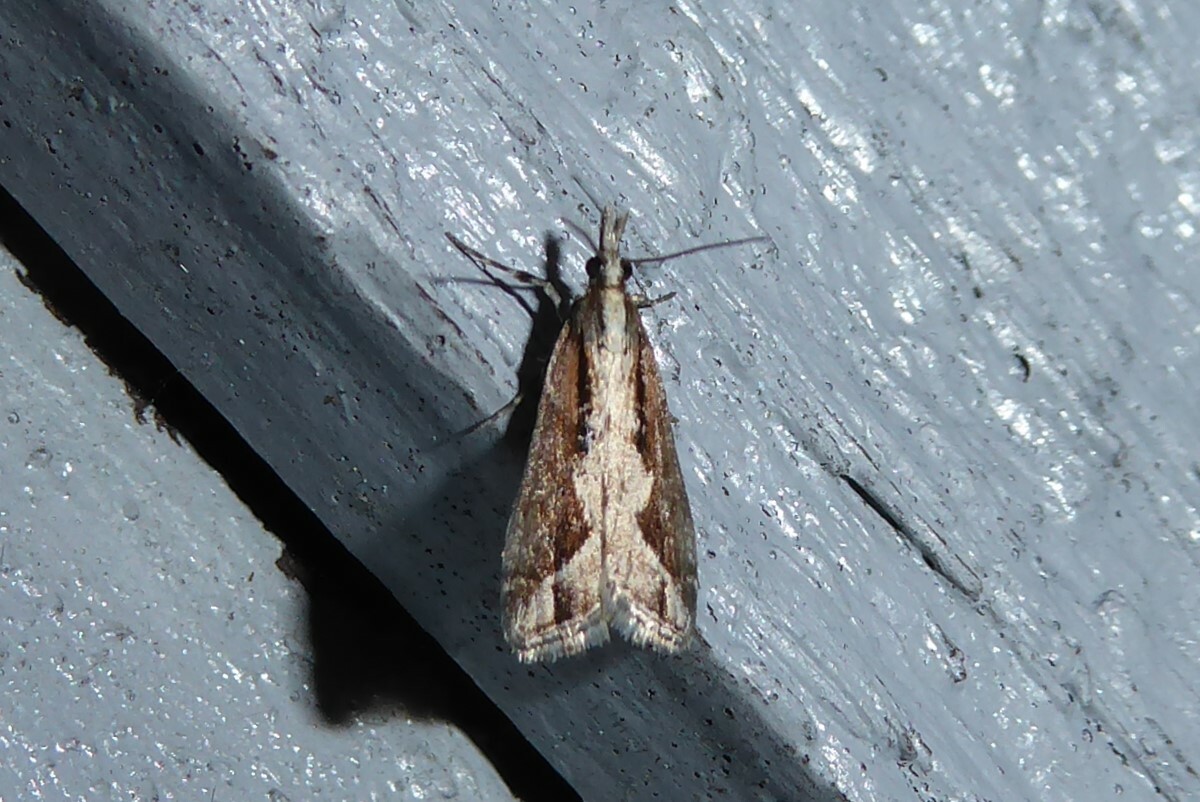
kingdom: Animalia
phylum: Arthropoda
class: Insecta
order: Lepidoptera
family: Crambidae
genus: Eudonia
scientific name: Eudonia steropaea
